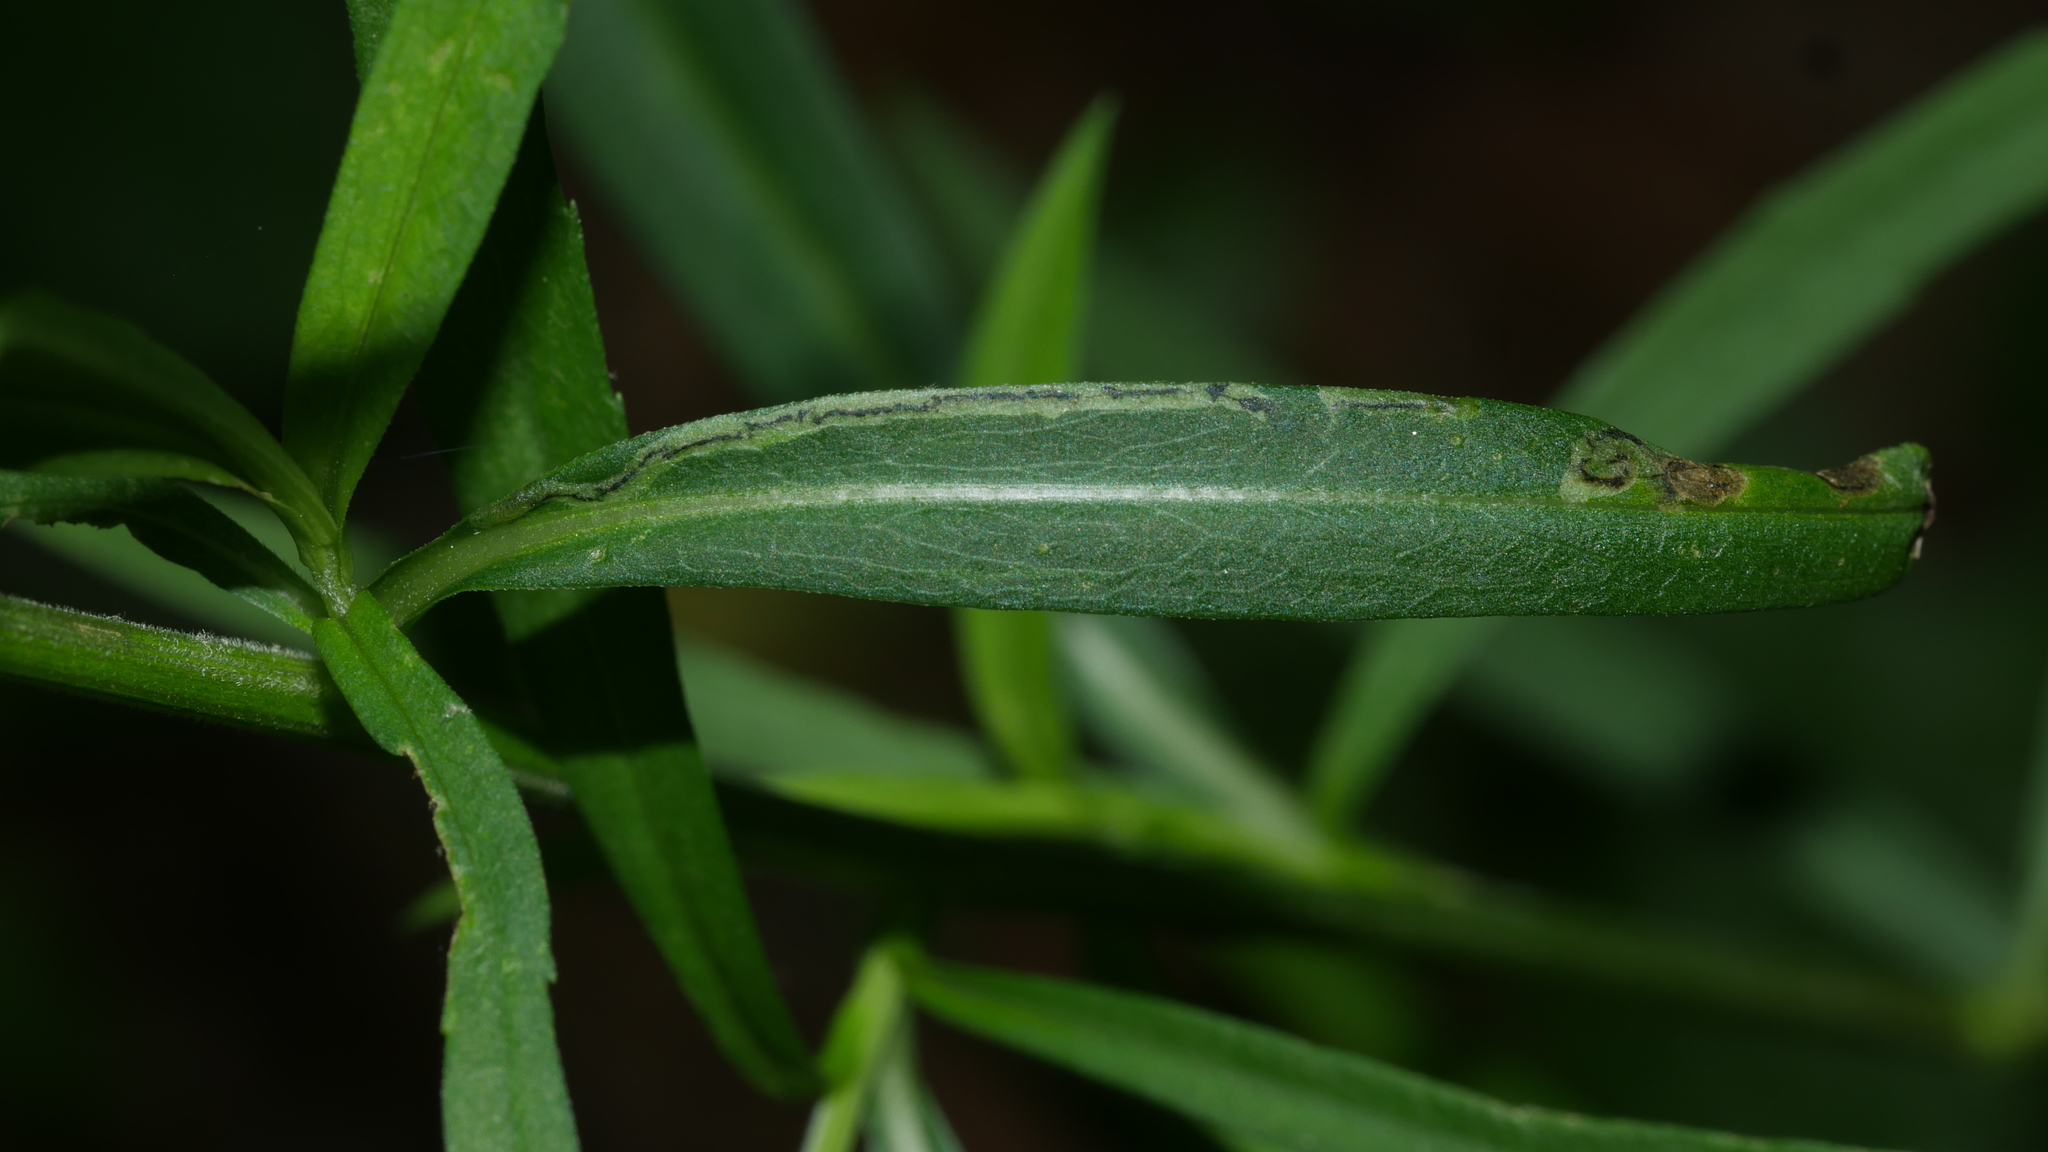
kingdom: Animalia
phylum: Arthropoda
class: Insecta
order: Diptera
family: Agromyzidae
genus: Liriomyza
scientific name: Liriomyza eupatorii
